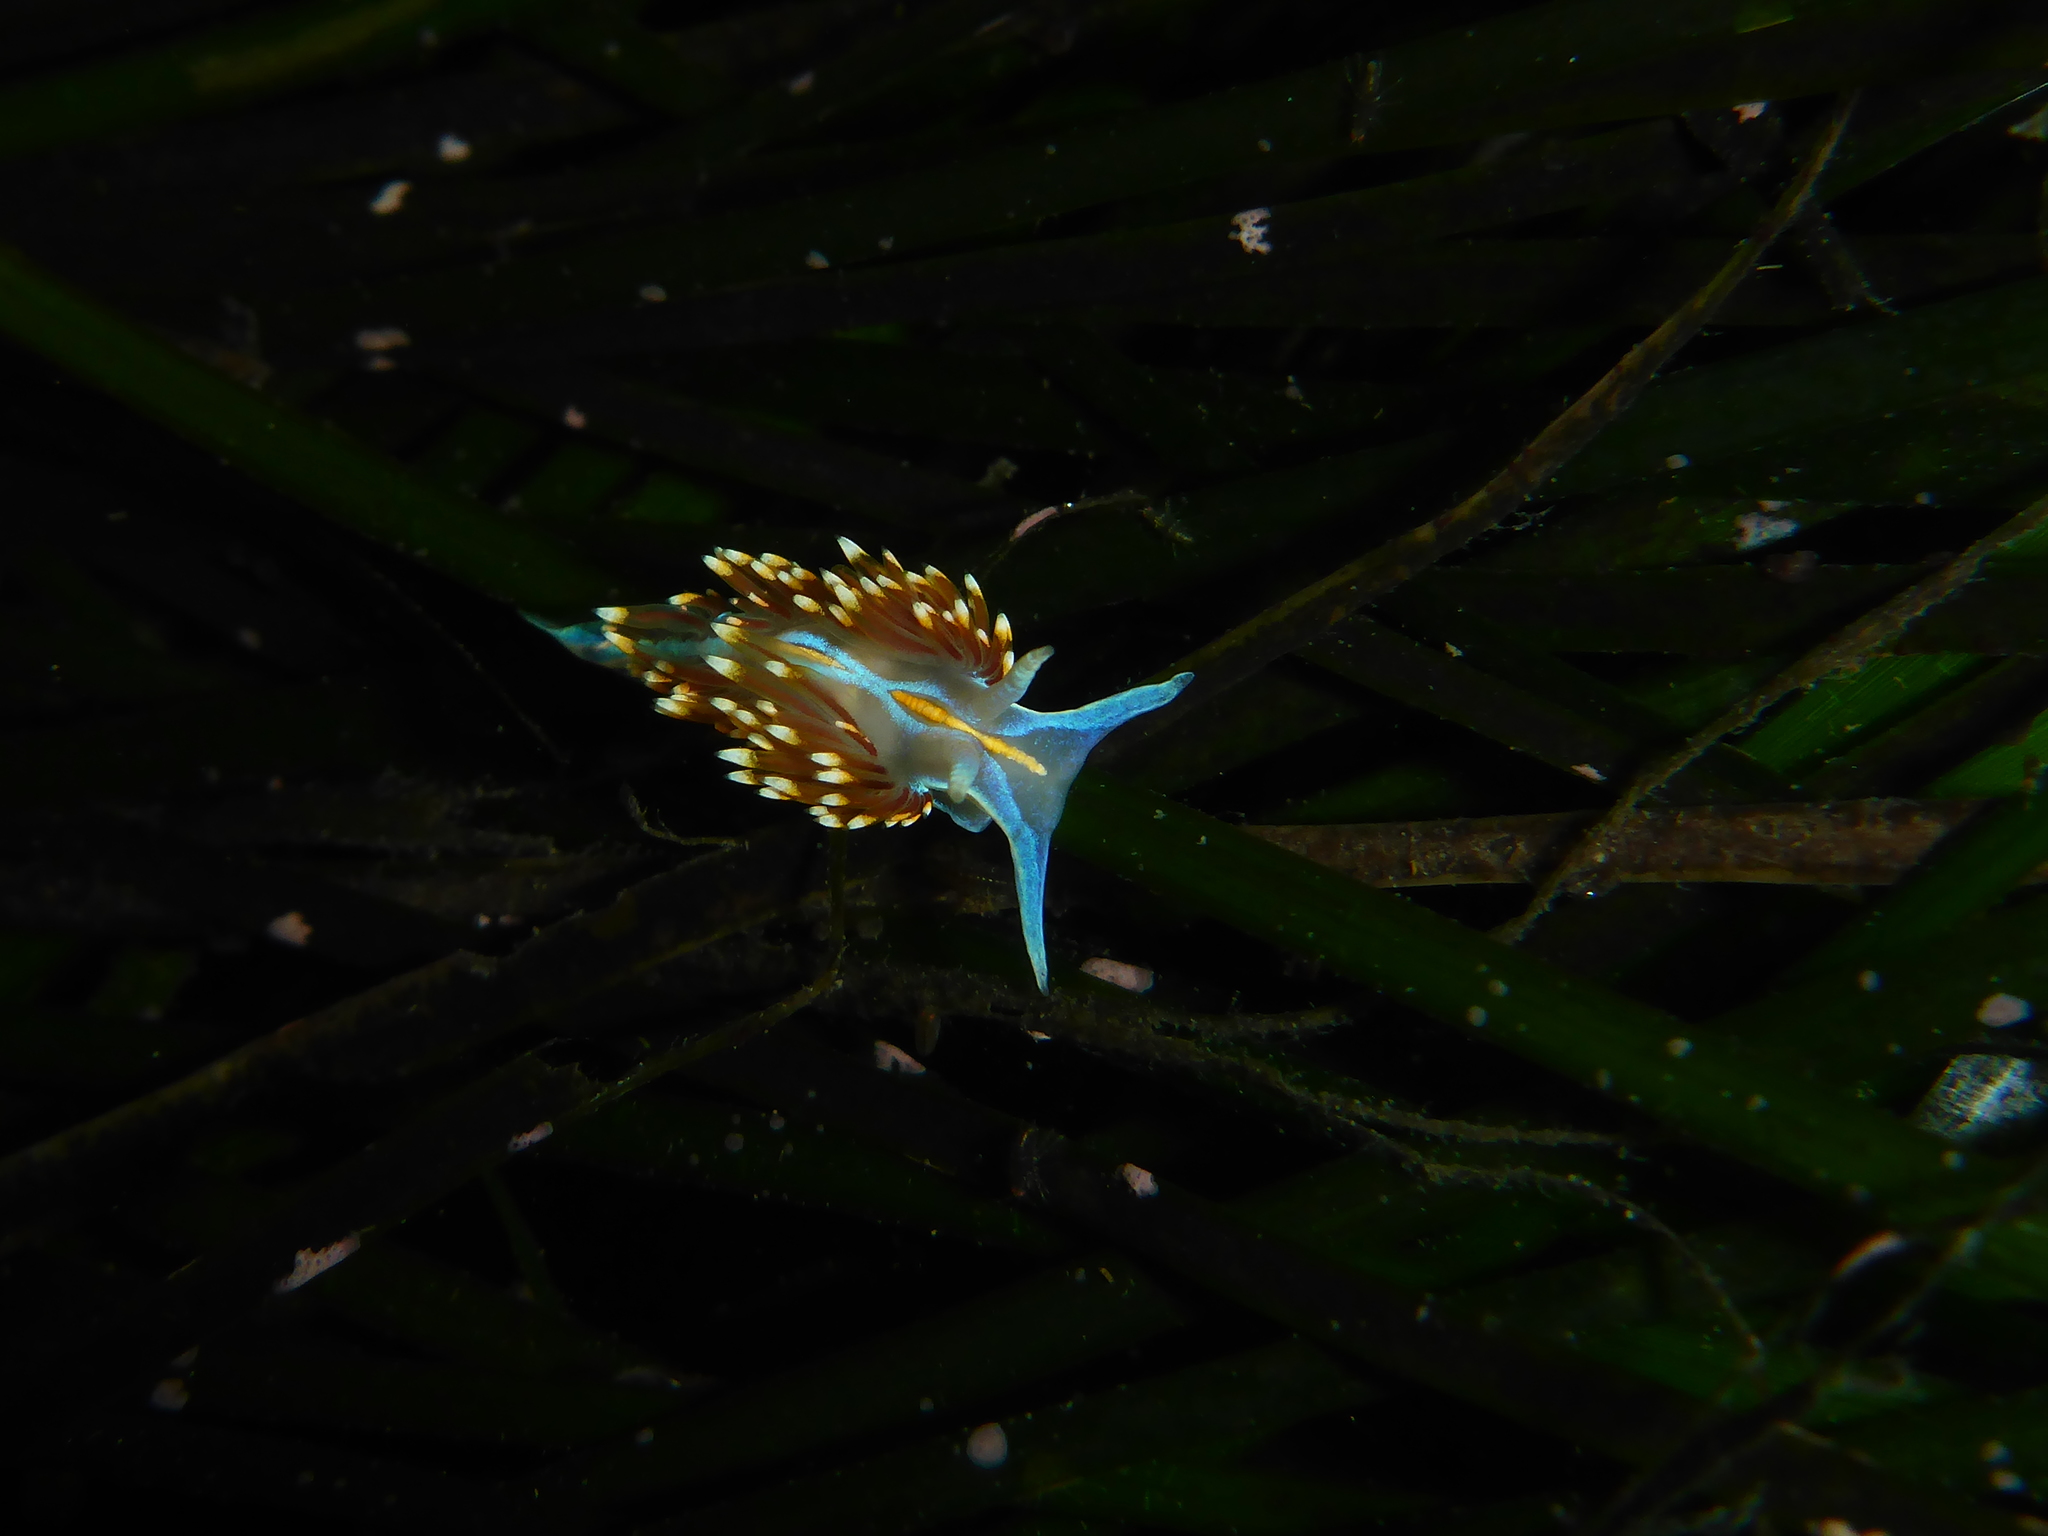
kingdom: Animalia
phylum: Mollusca
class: Gastropoda
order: Nudibranchia
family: Myrrhinidae
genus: Hermissenda
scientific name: Hermissenda opalescens
